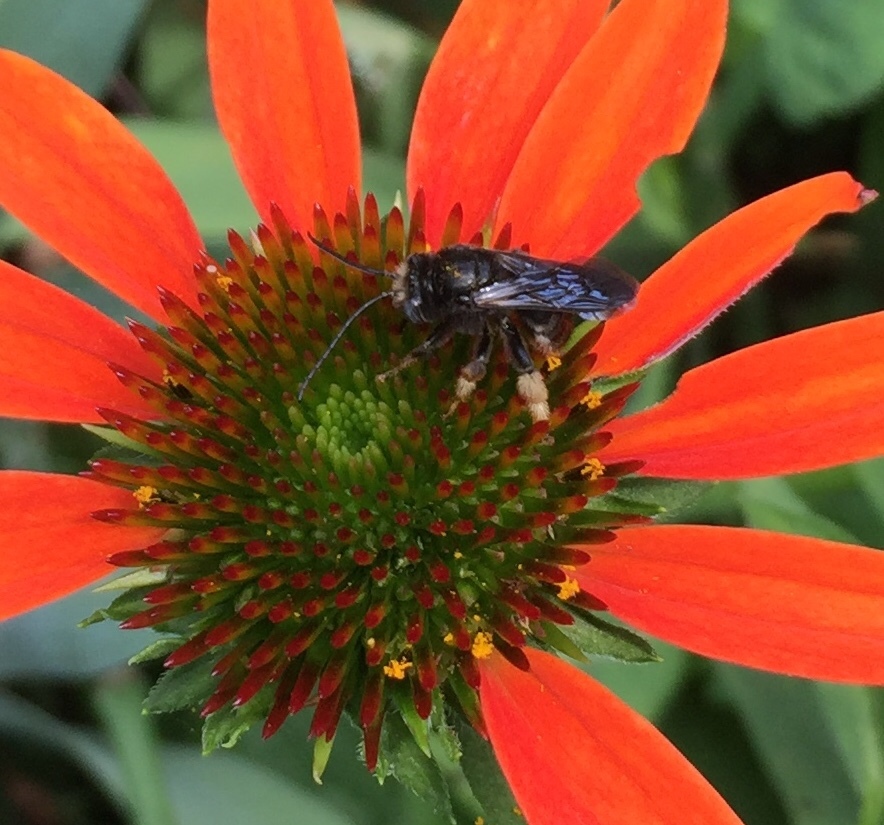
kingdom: Animalia
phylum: Arthropoda
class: Insecta
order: Hymenoptera
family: Apidae
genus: Melissodes
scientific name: Melissodes bimaculatus
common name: Two-spotted long-horned bee
